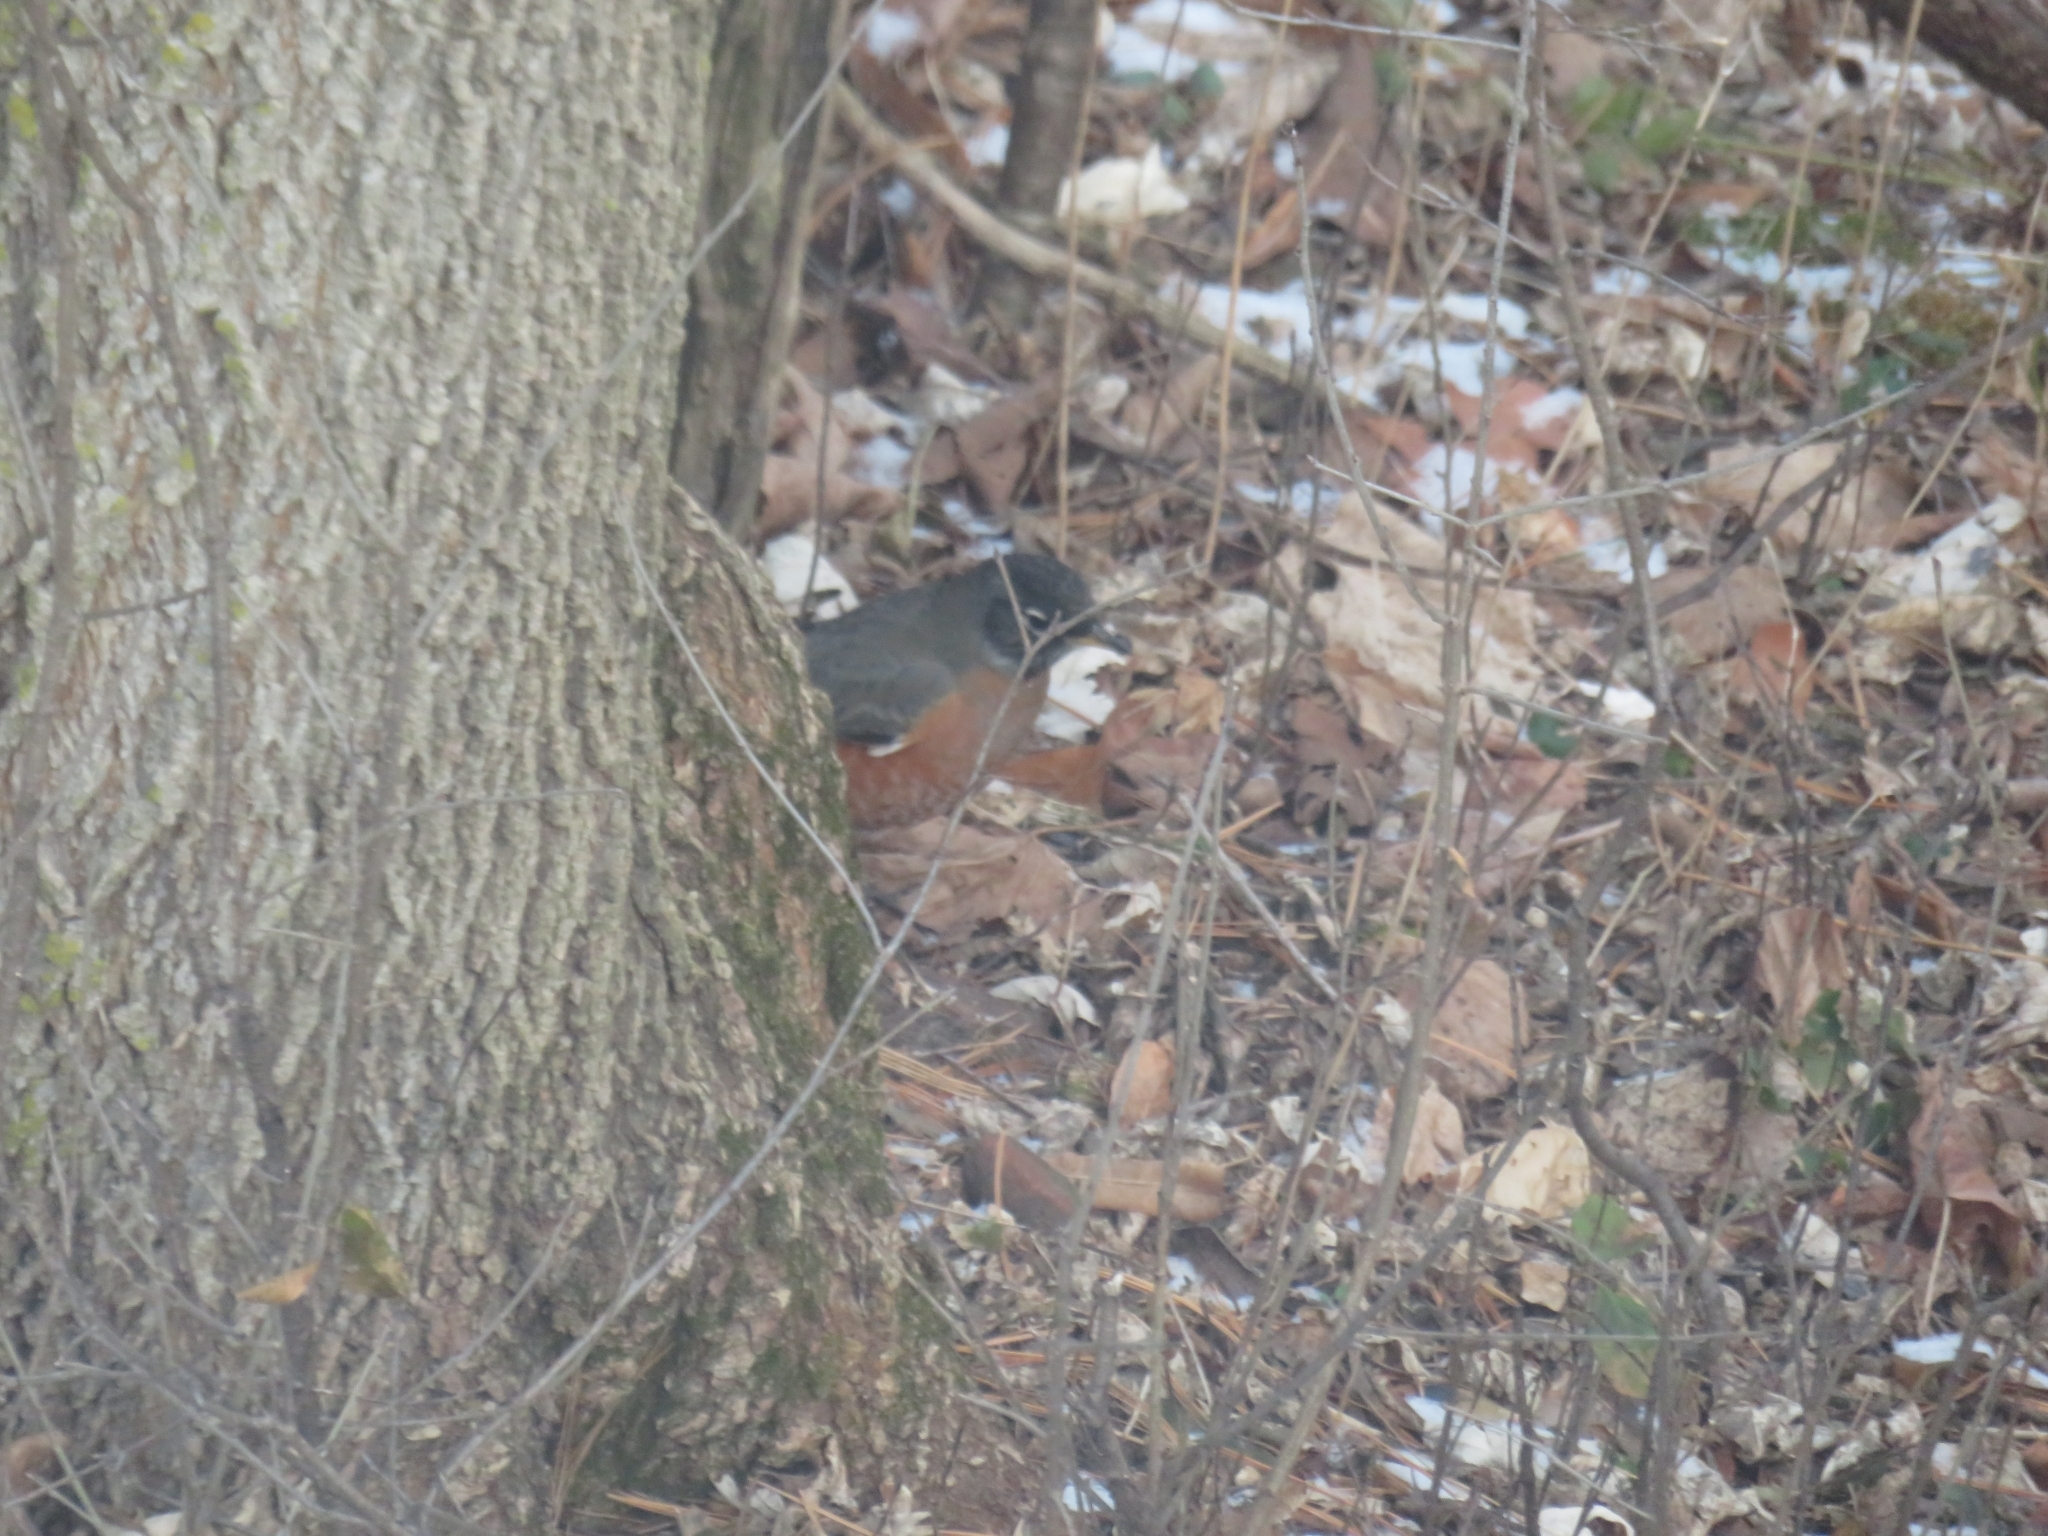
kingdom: Animalia
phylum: Chordata
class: Aves
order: Passeriformes
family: Turdidae
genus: Turdus
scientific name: Turdus migratorius
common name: American robin
